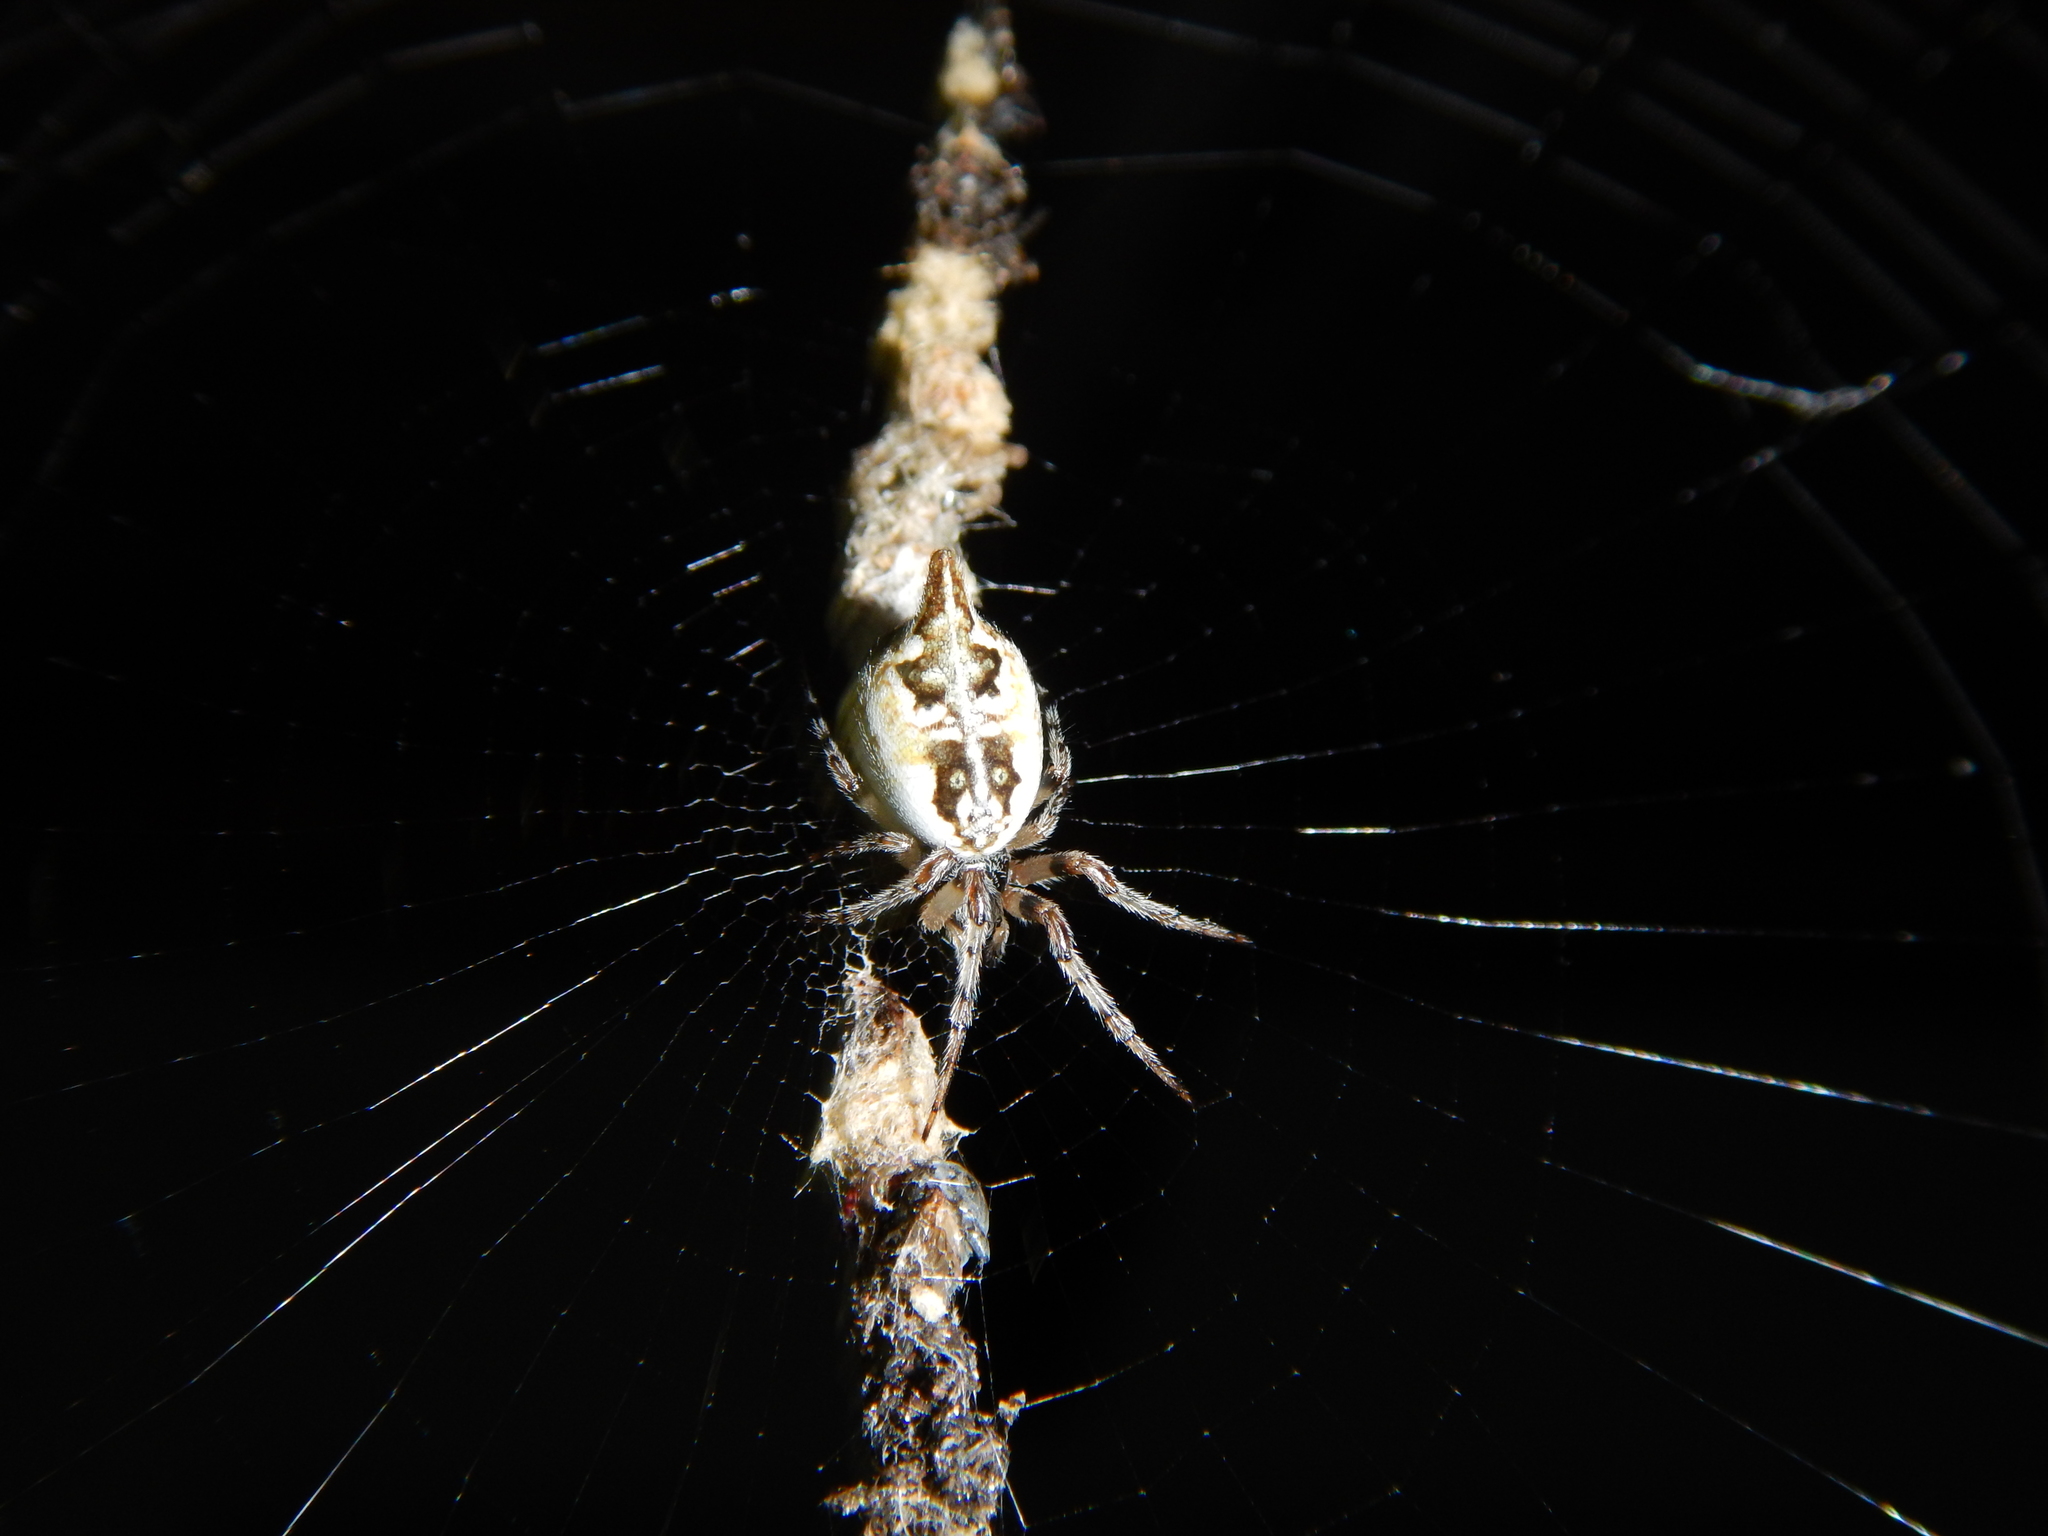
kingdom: Animalia
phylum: Arthropoda
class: Arachnida
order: Araneae
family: Araneidae
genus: Cyclosa
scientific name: Cyclosa sierrae
